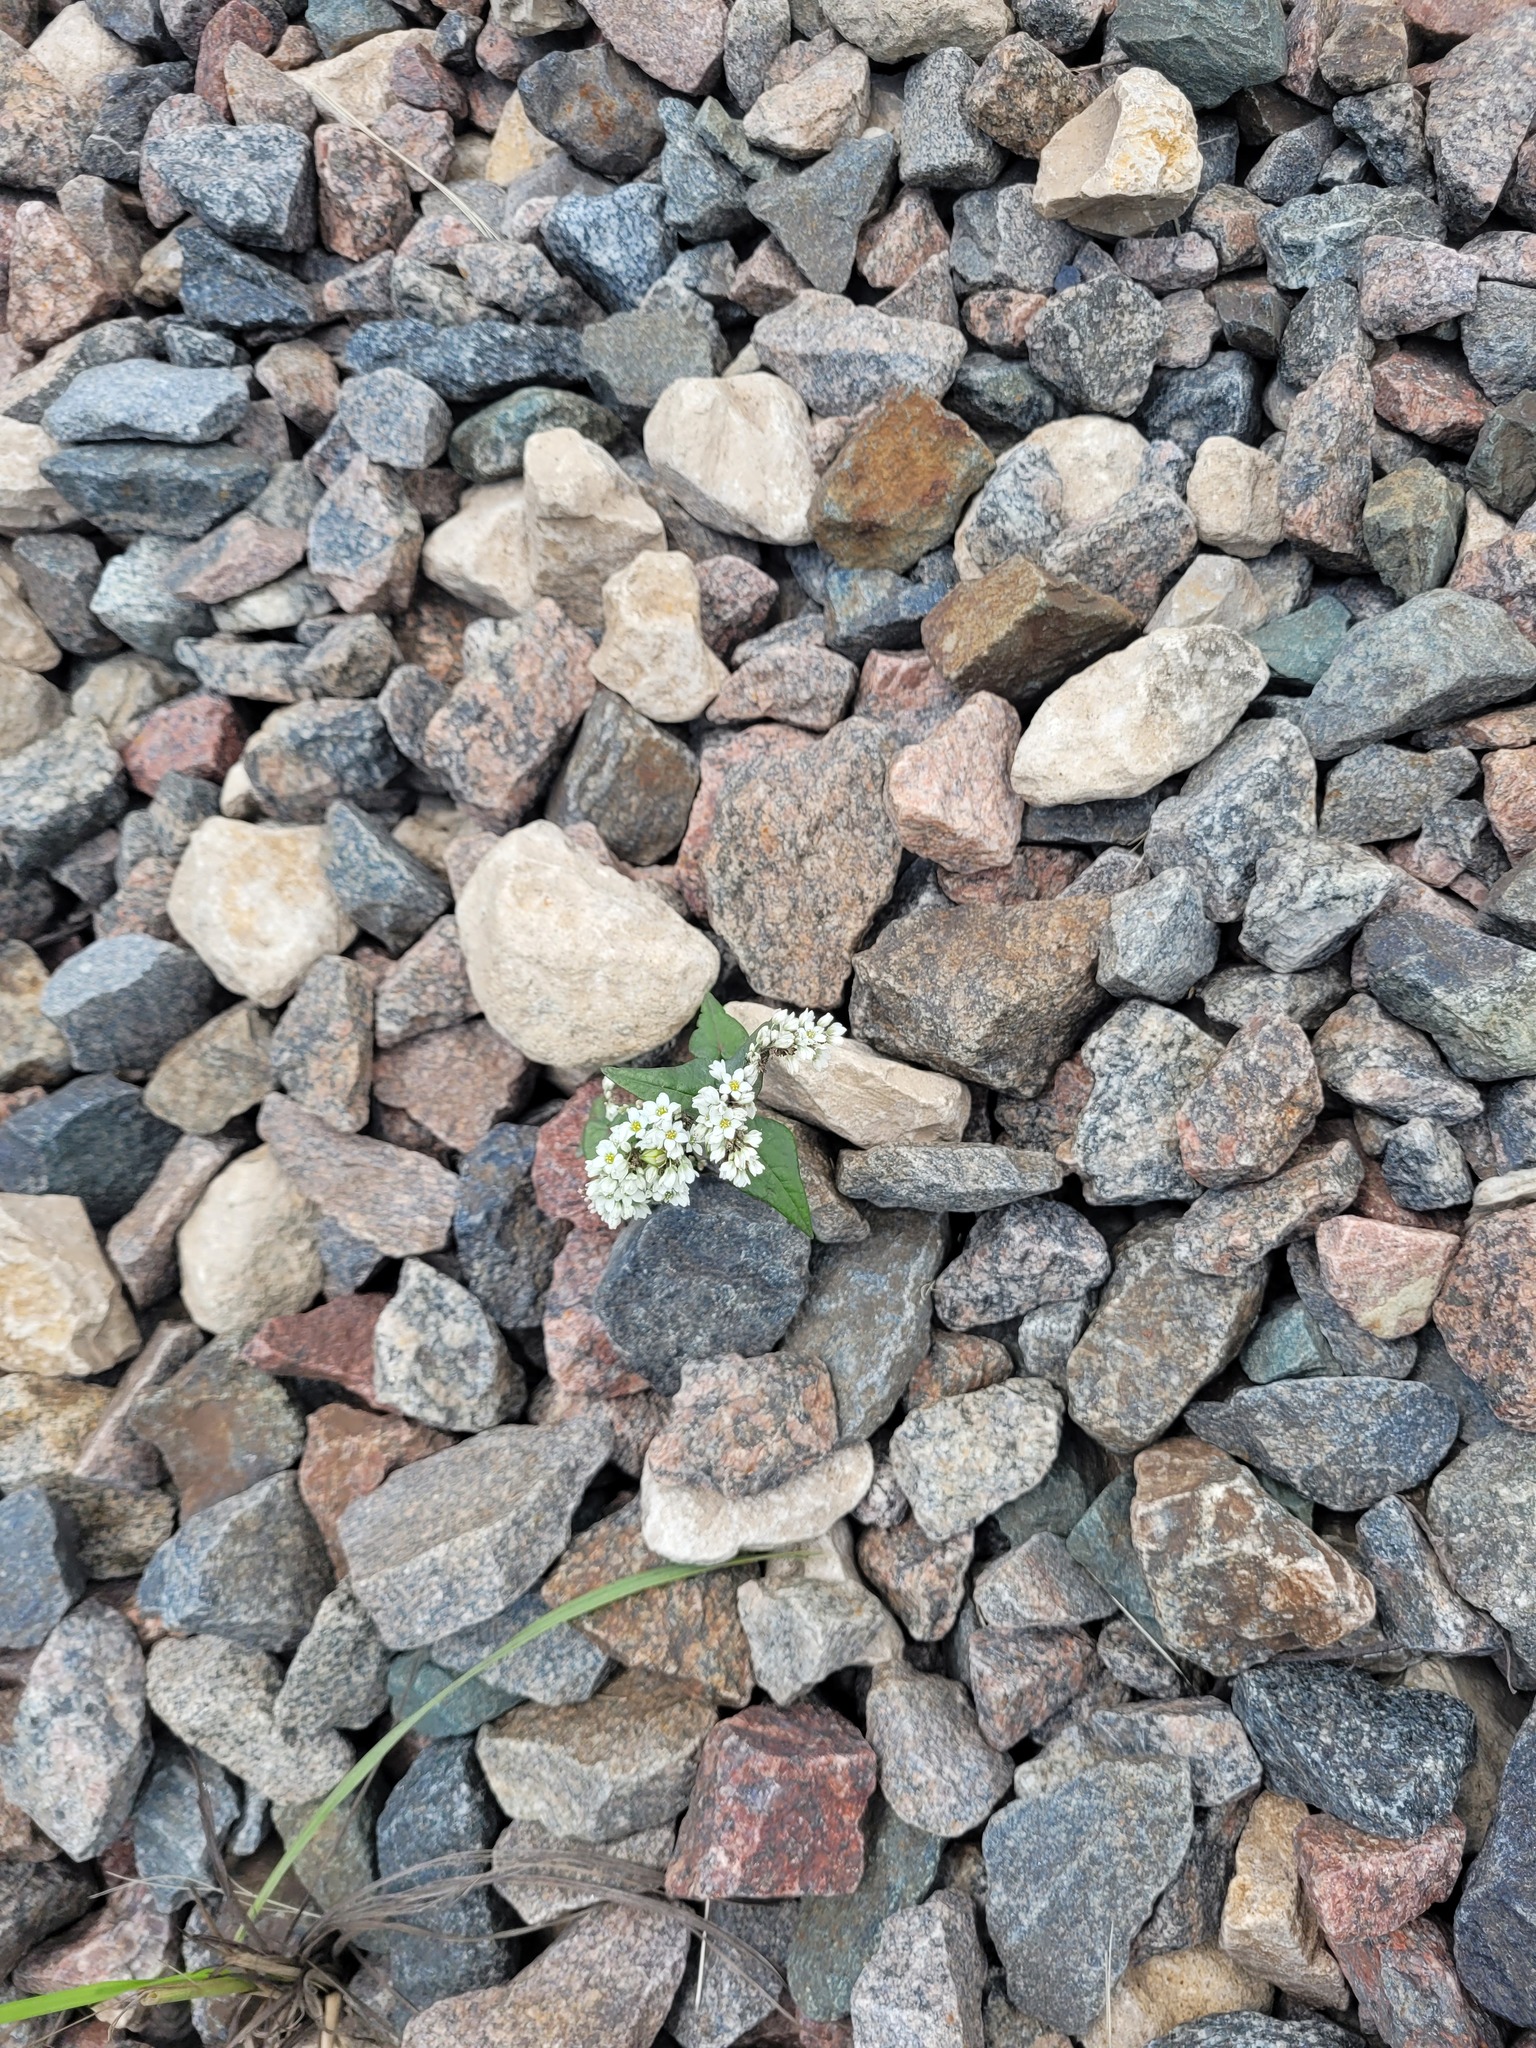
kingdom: Plantae
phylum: Tracheophyta
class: Magnoliopsida
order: Caryophyllales
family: Polygonaceae
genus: Fagopyrum
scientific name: Fagopyrum esculentum
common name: Buckwheat
